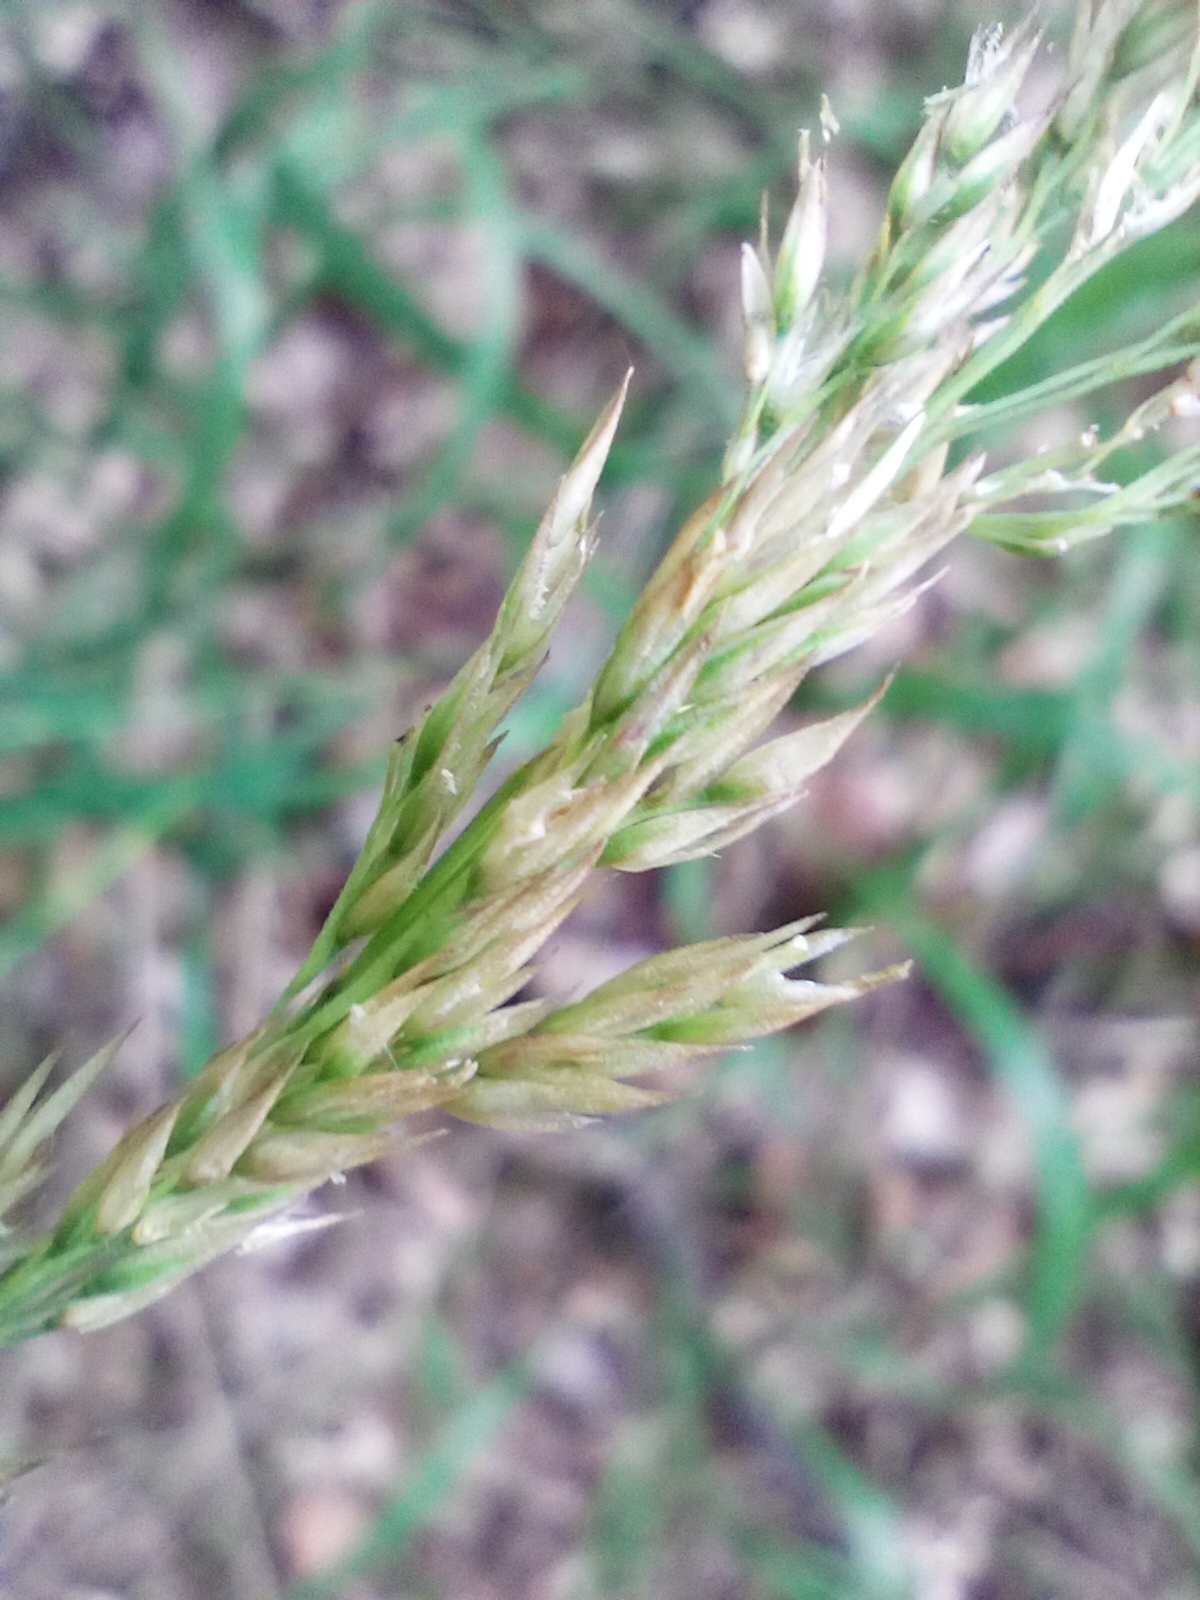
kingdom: Plantae
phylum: Tracheophyta
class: Liliopsida
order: Poales
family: Poaceae
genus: Calamagrostis
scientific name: Calamagrostis villosa
